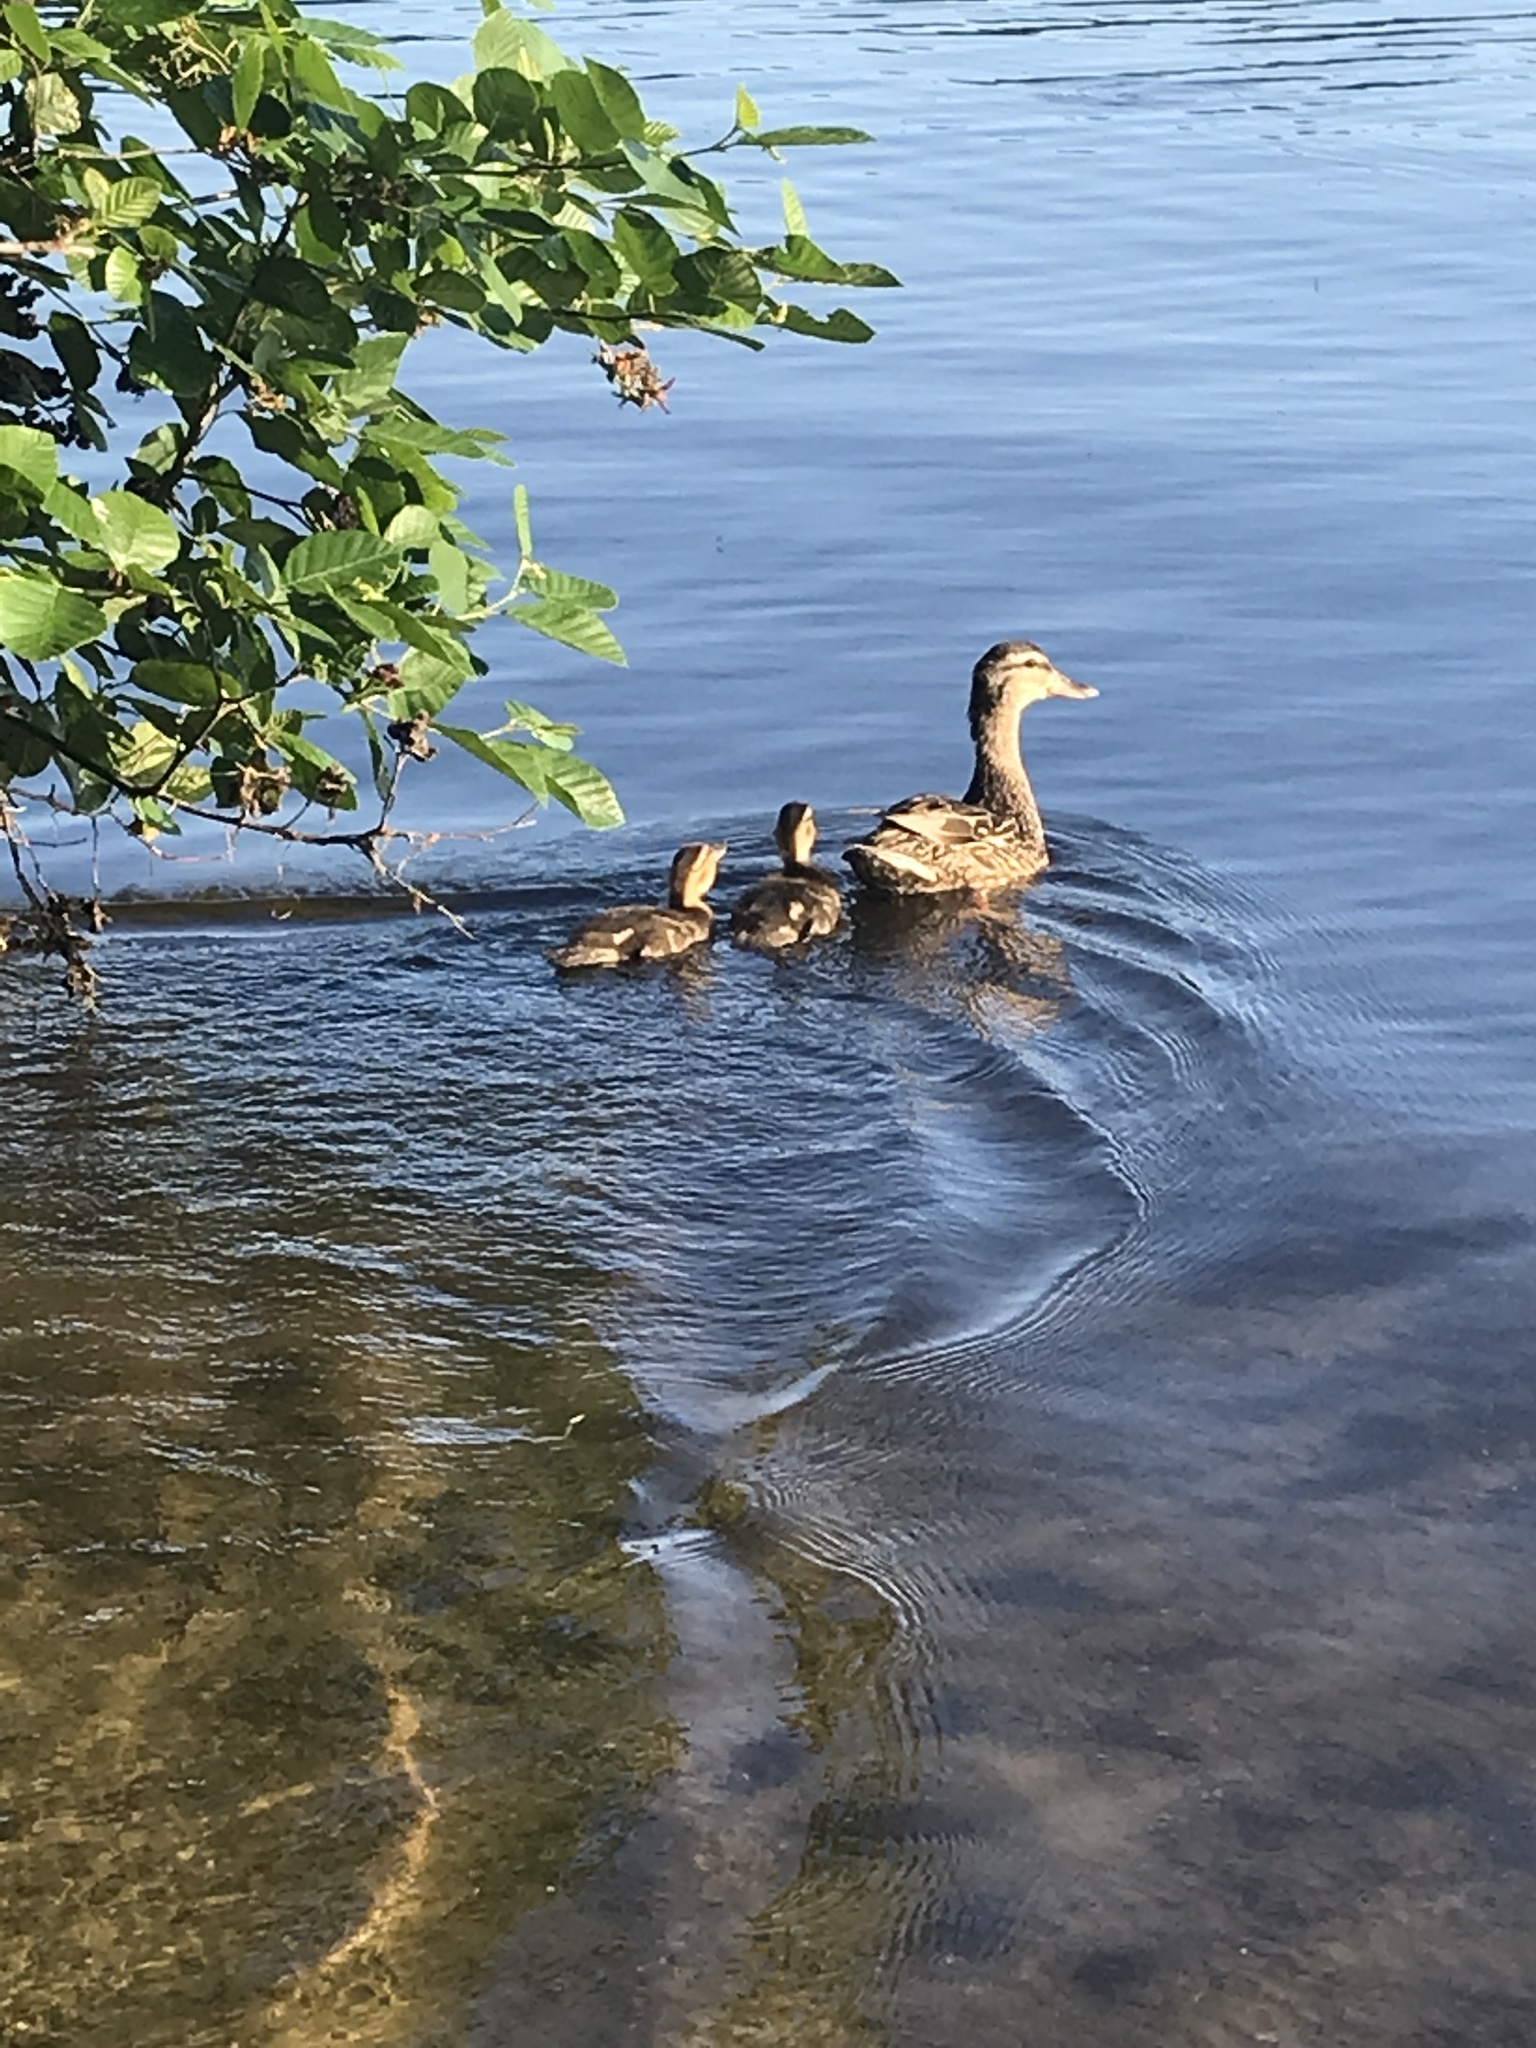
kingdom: Animalia
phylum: Chordata
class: Aves
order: Anseriformes
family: Anatidae
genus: Anas
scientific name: Anas platyrhynchos
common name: Mallard
